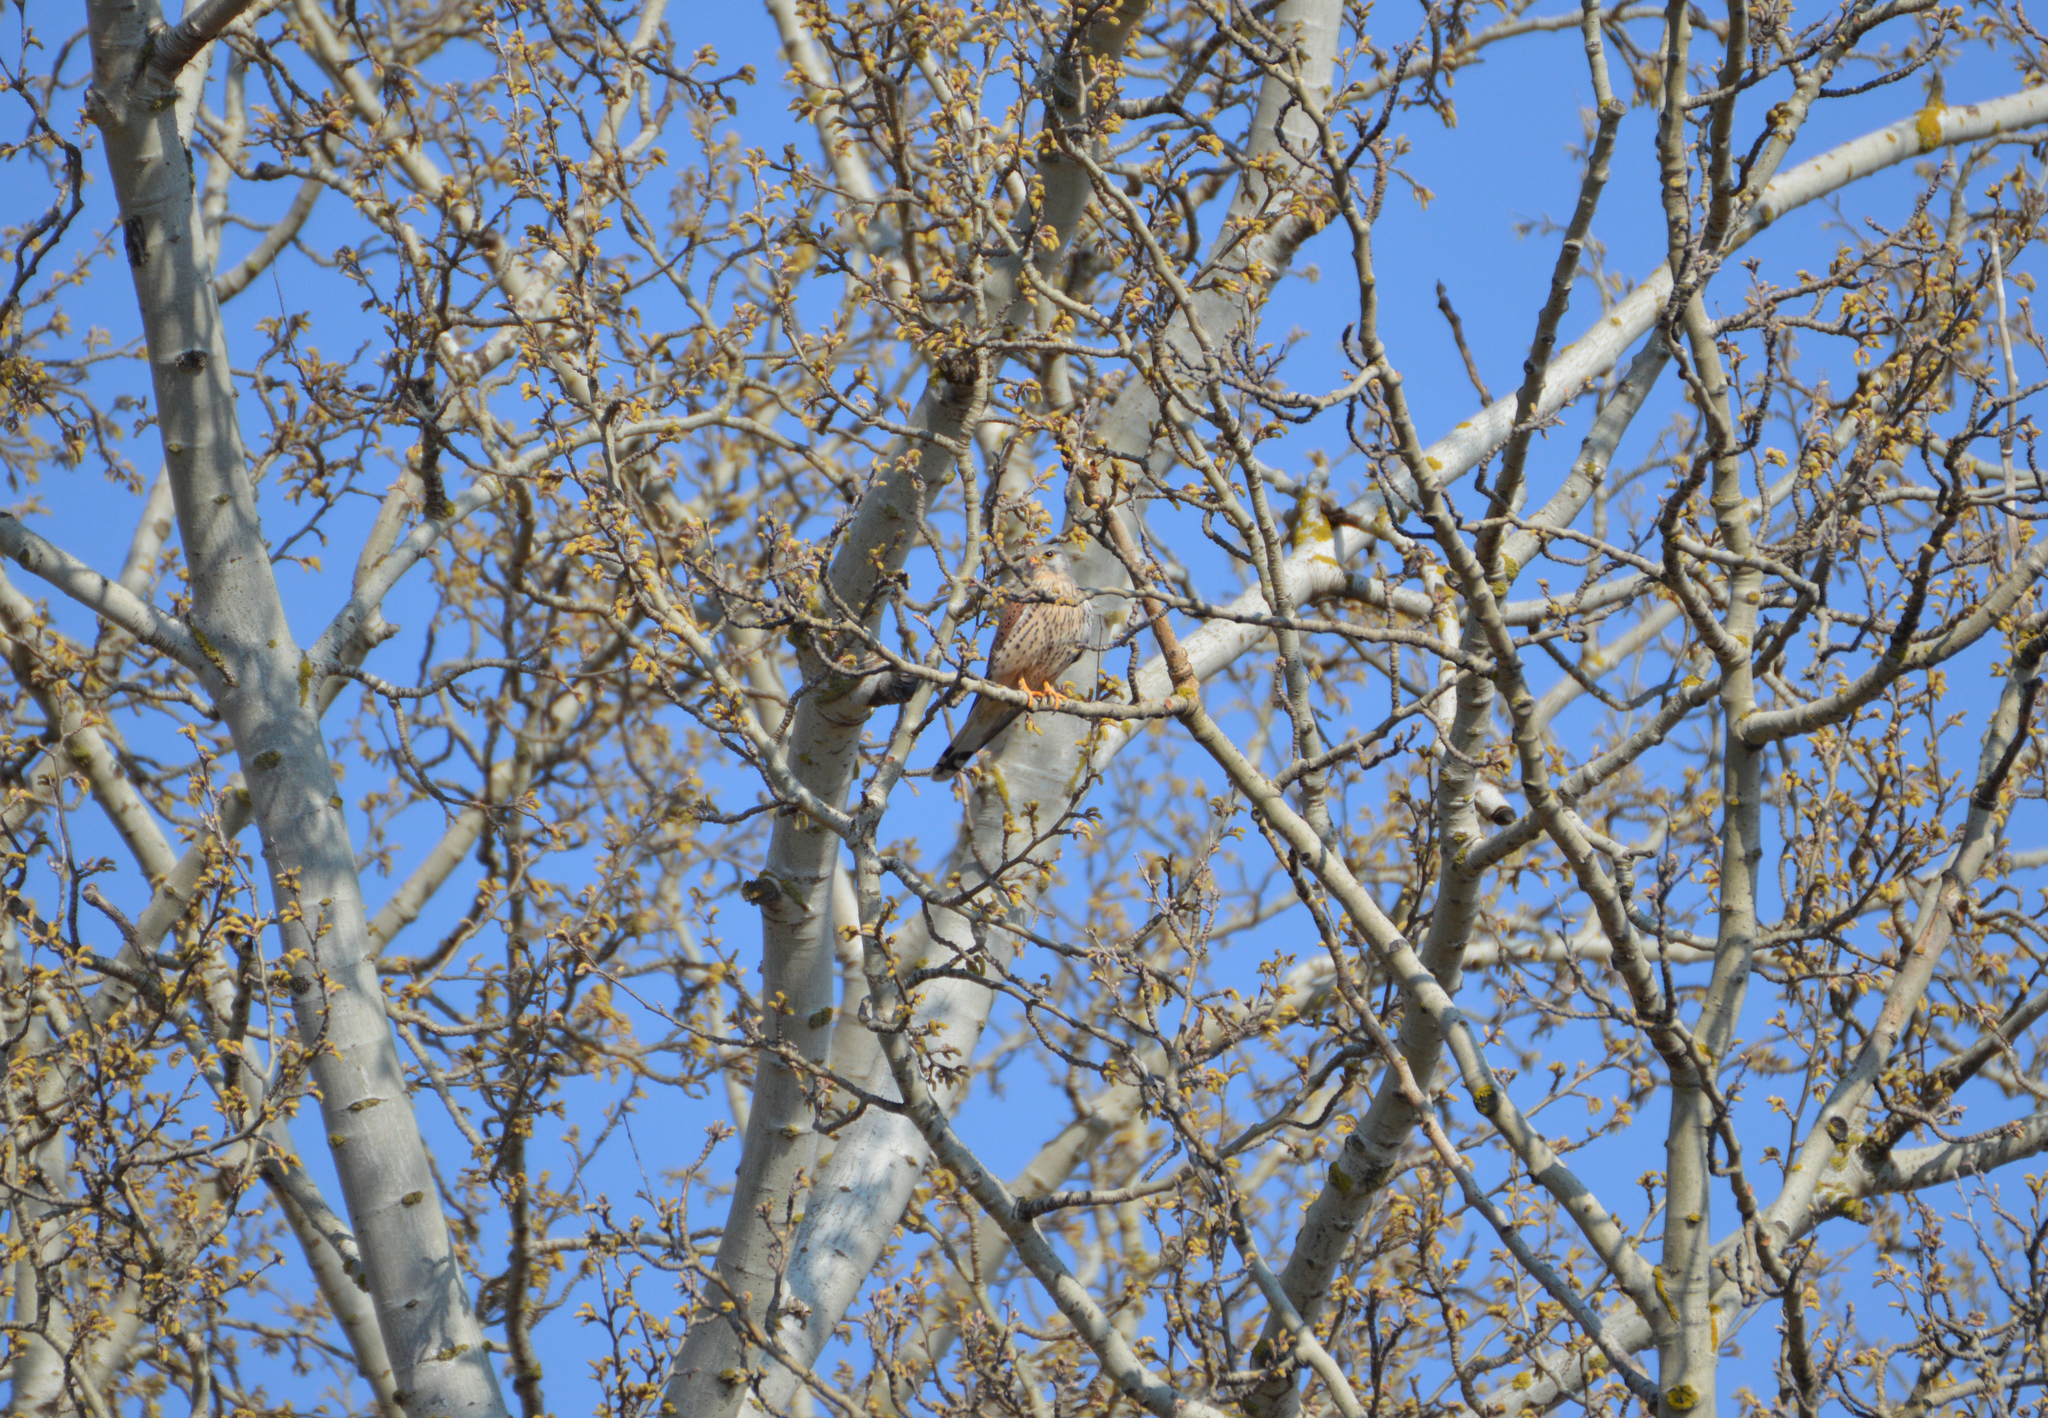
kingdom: Animalia
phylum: Chordata
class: Aves
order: Falconiformes
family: Falconidae
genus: Falco
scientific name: Falco tinnunculus
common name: Common kestrel
